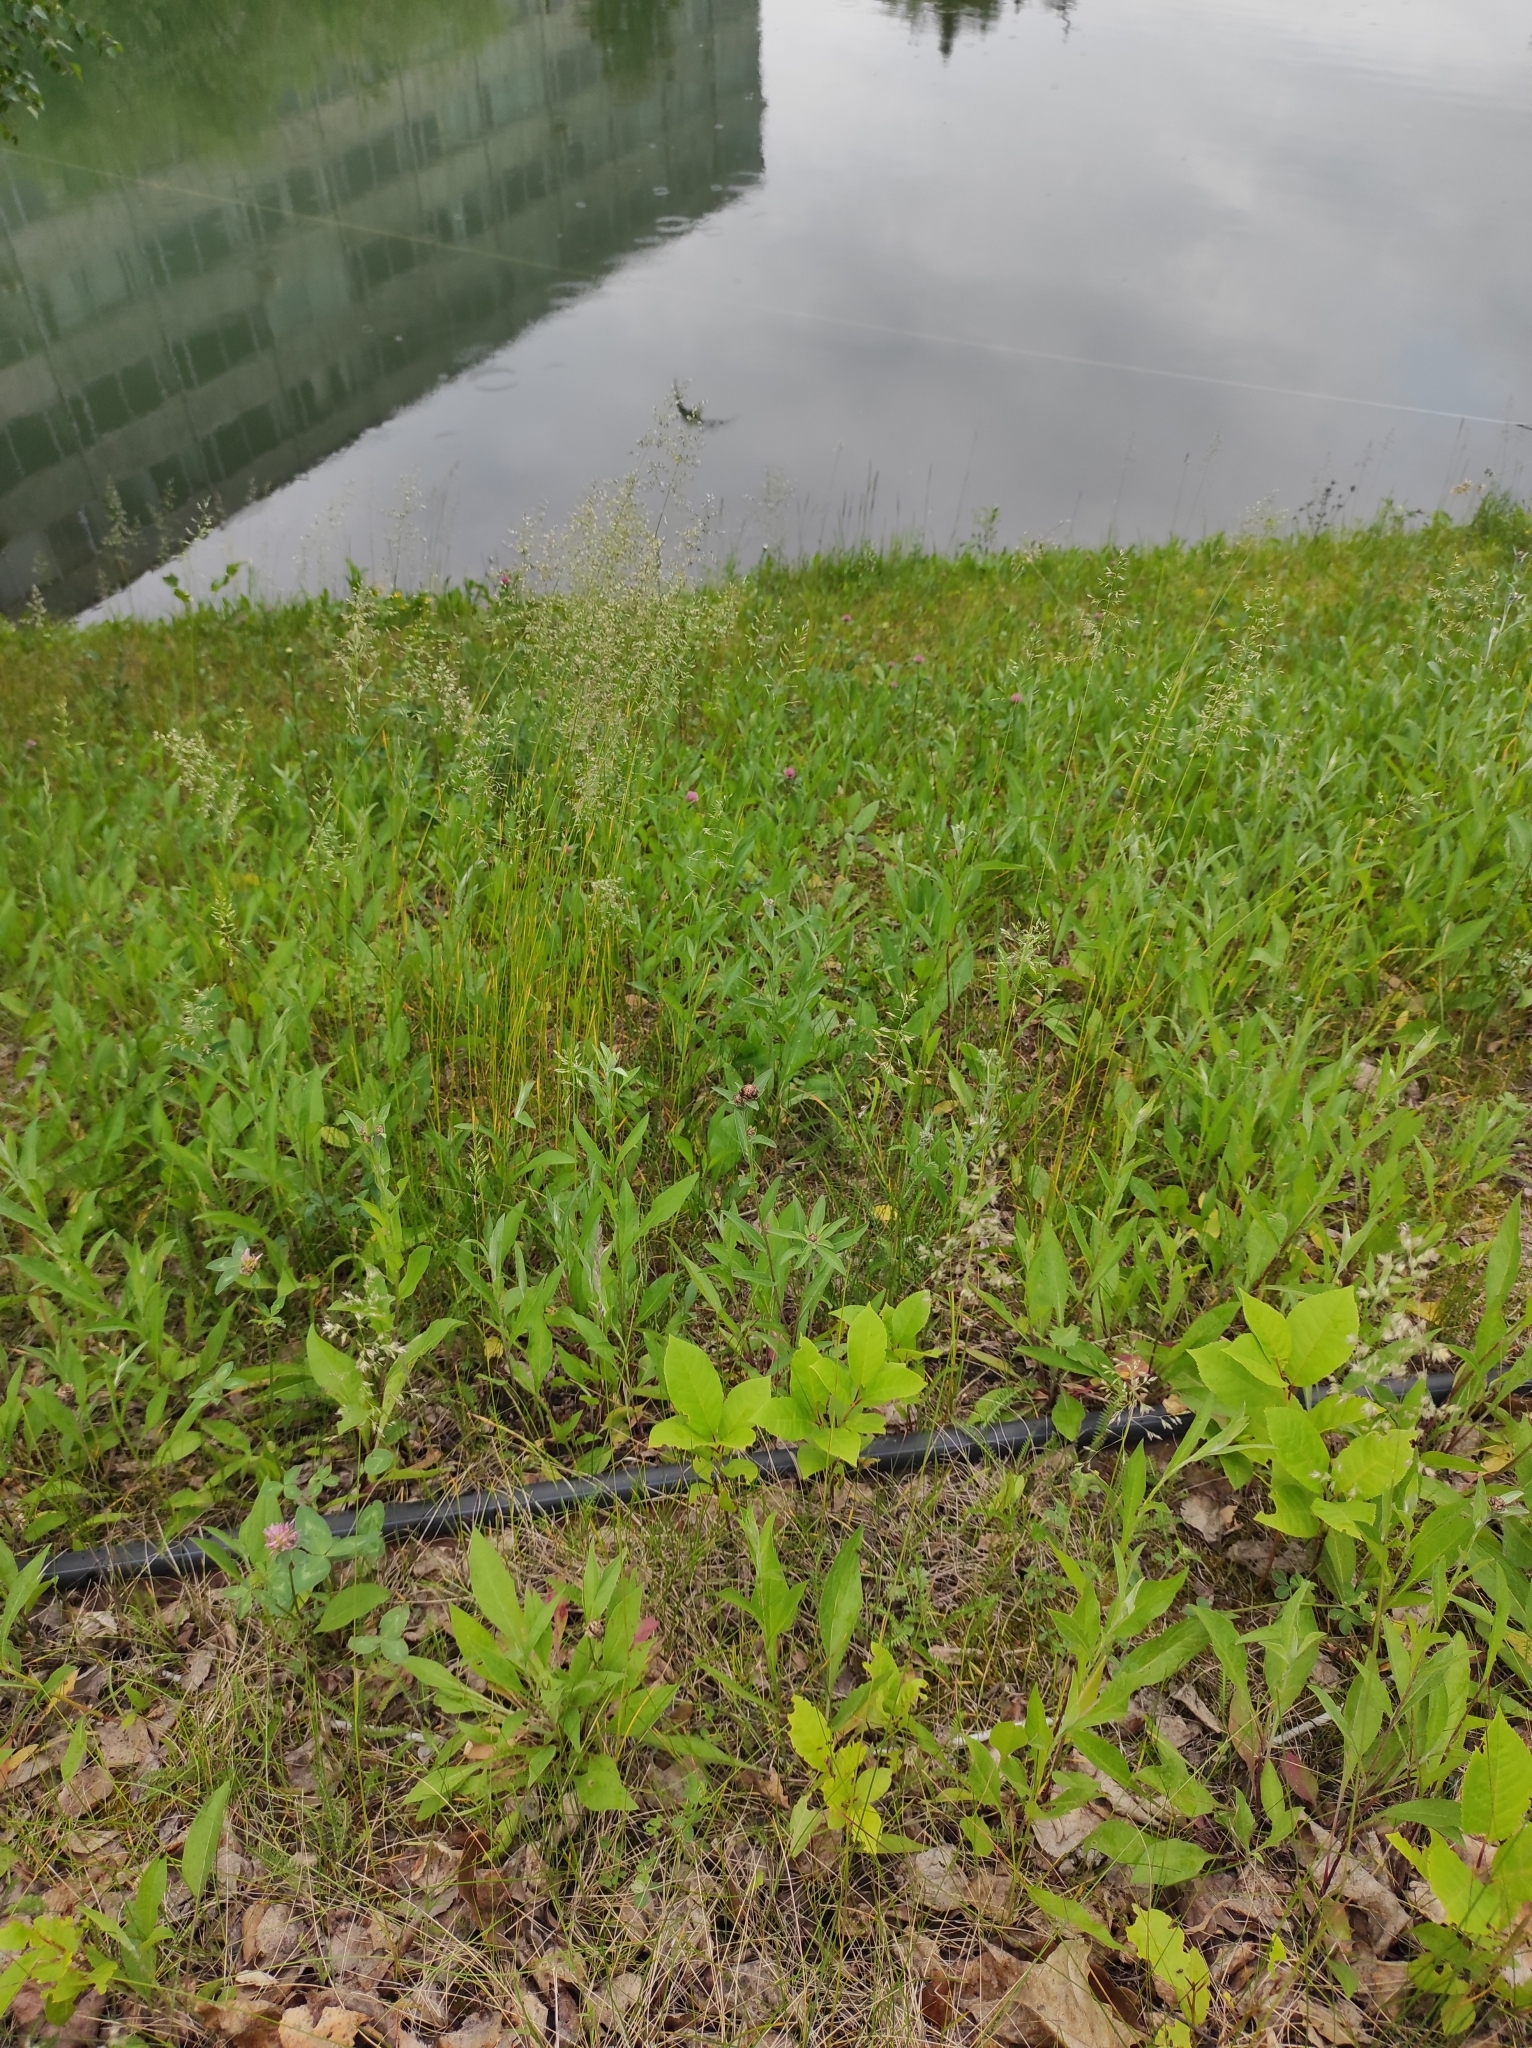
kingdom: Plantae
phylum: Tracheophyta
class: Magnoliopsida
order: Fabales
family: Fabaceae
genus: Trifolium
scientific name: Trifolium pratense
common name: Red clover
